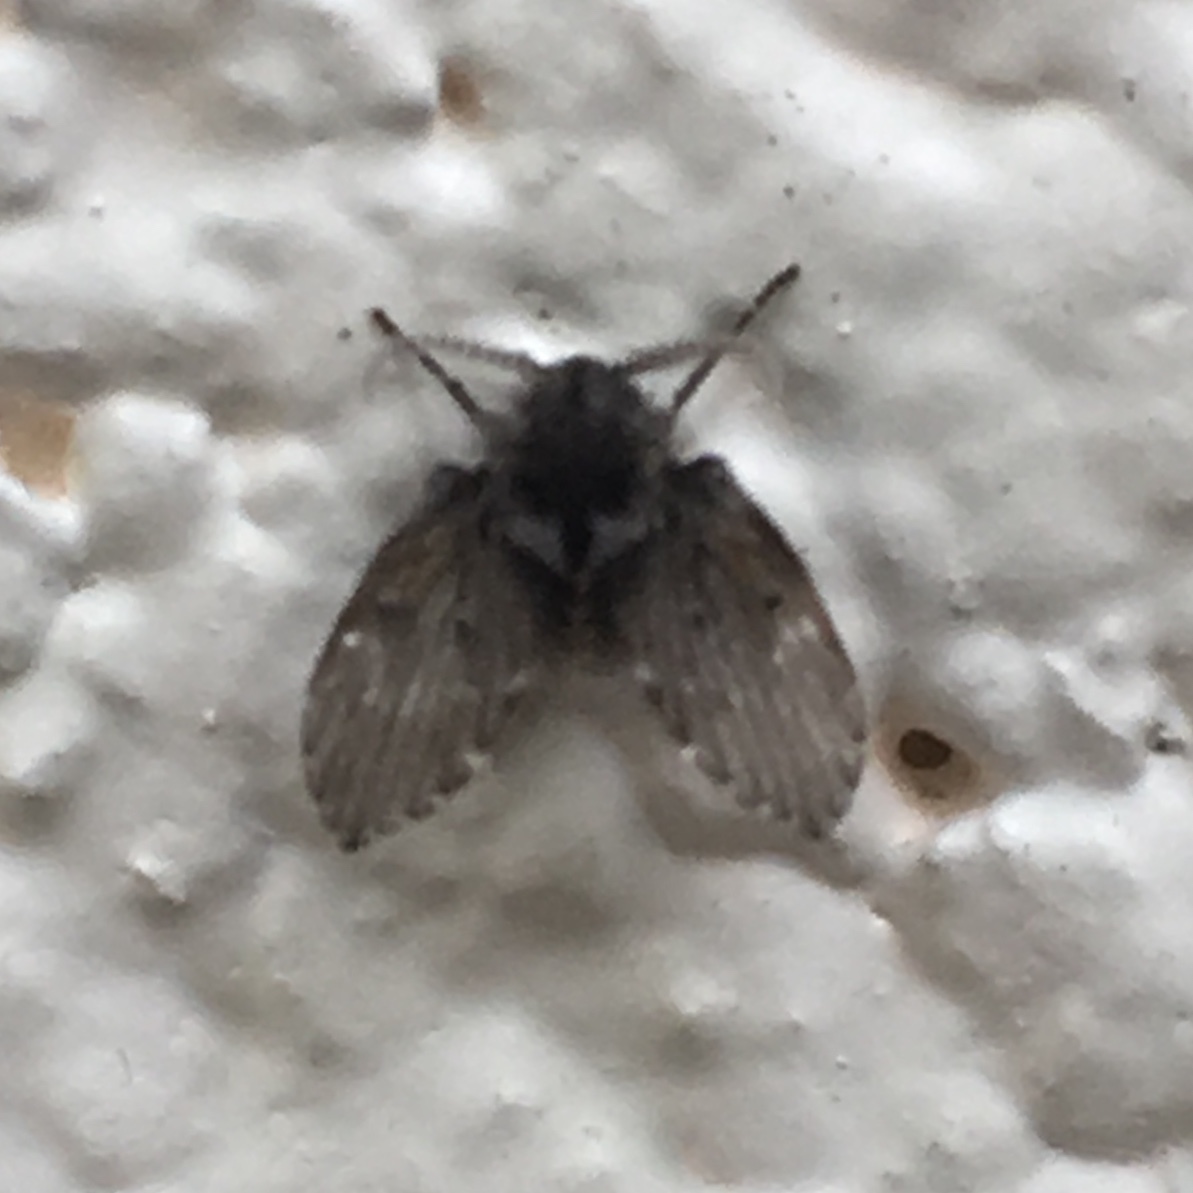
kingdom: Animalia
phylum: Arthropoda
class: Insecta
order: Diptera
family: Psychodidae
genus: Clogmia
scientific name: Clogmia albipunctatus
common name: White-spotted moth fly
